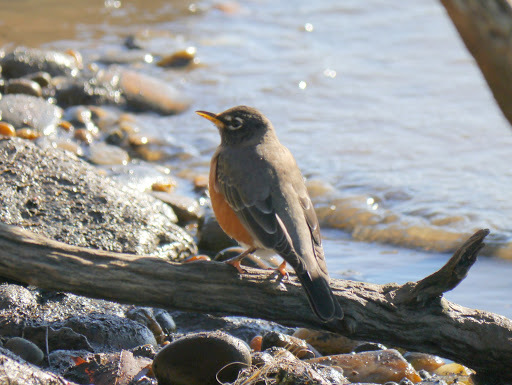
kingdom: Animalia
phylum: Chordata
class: Aves
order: Passeriformes
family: Turdidae
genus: Turdus
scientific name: Turdus migratorius
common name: American robin
